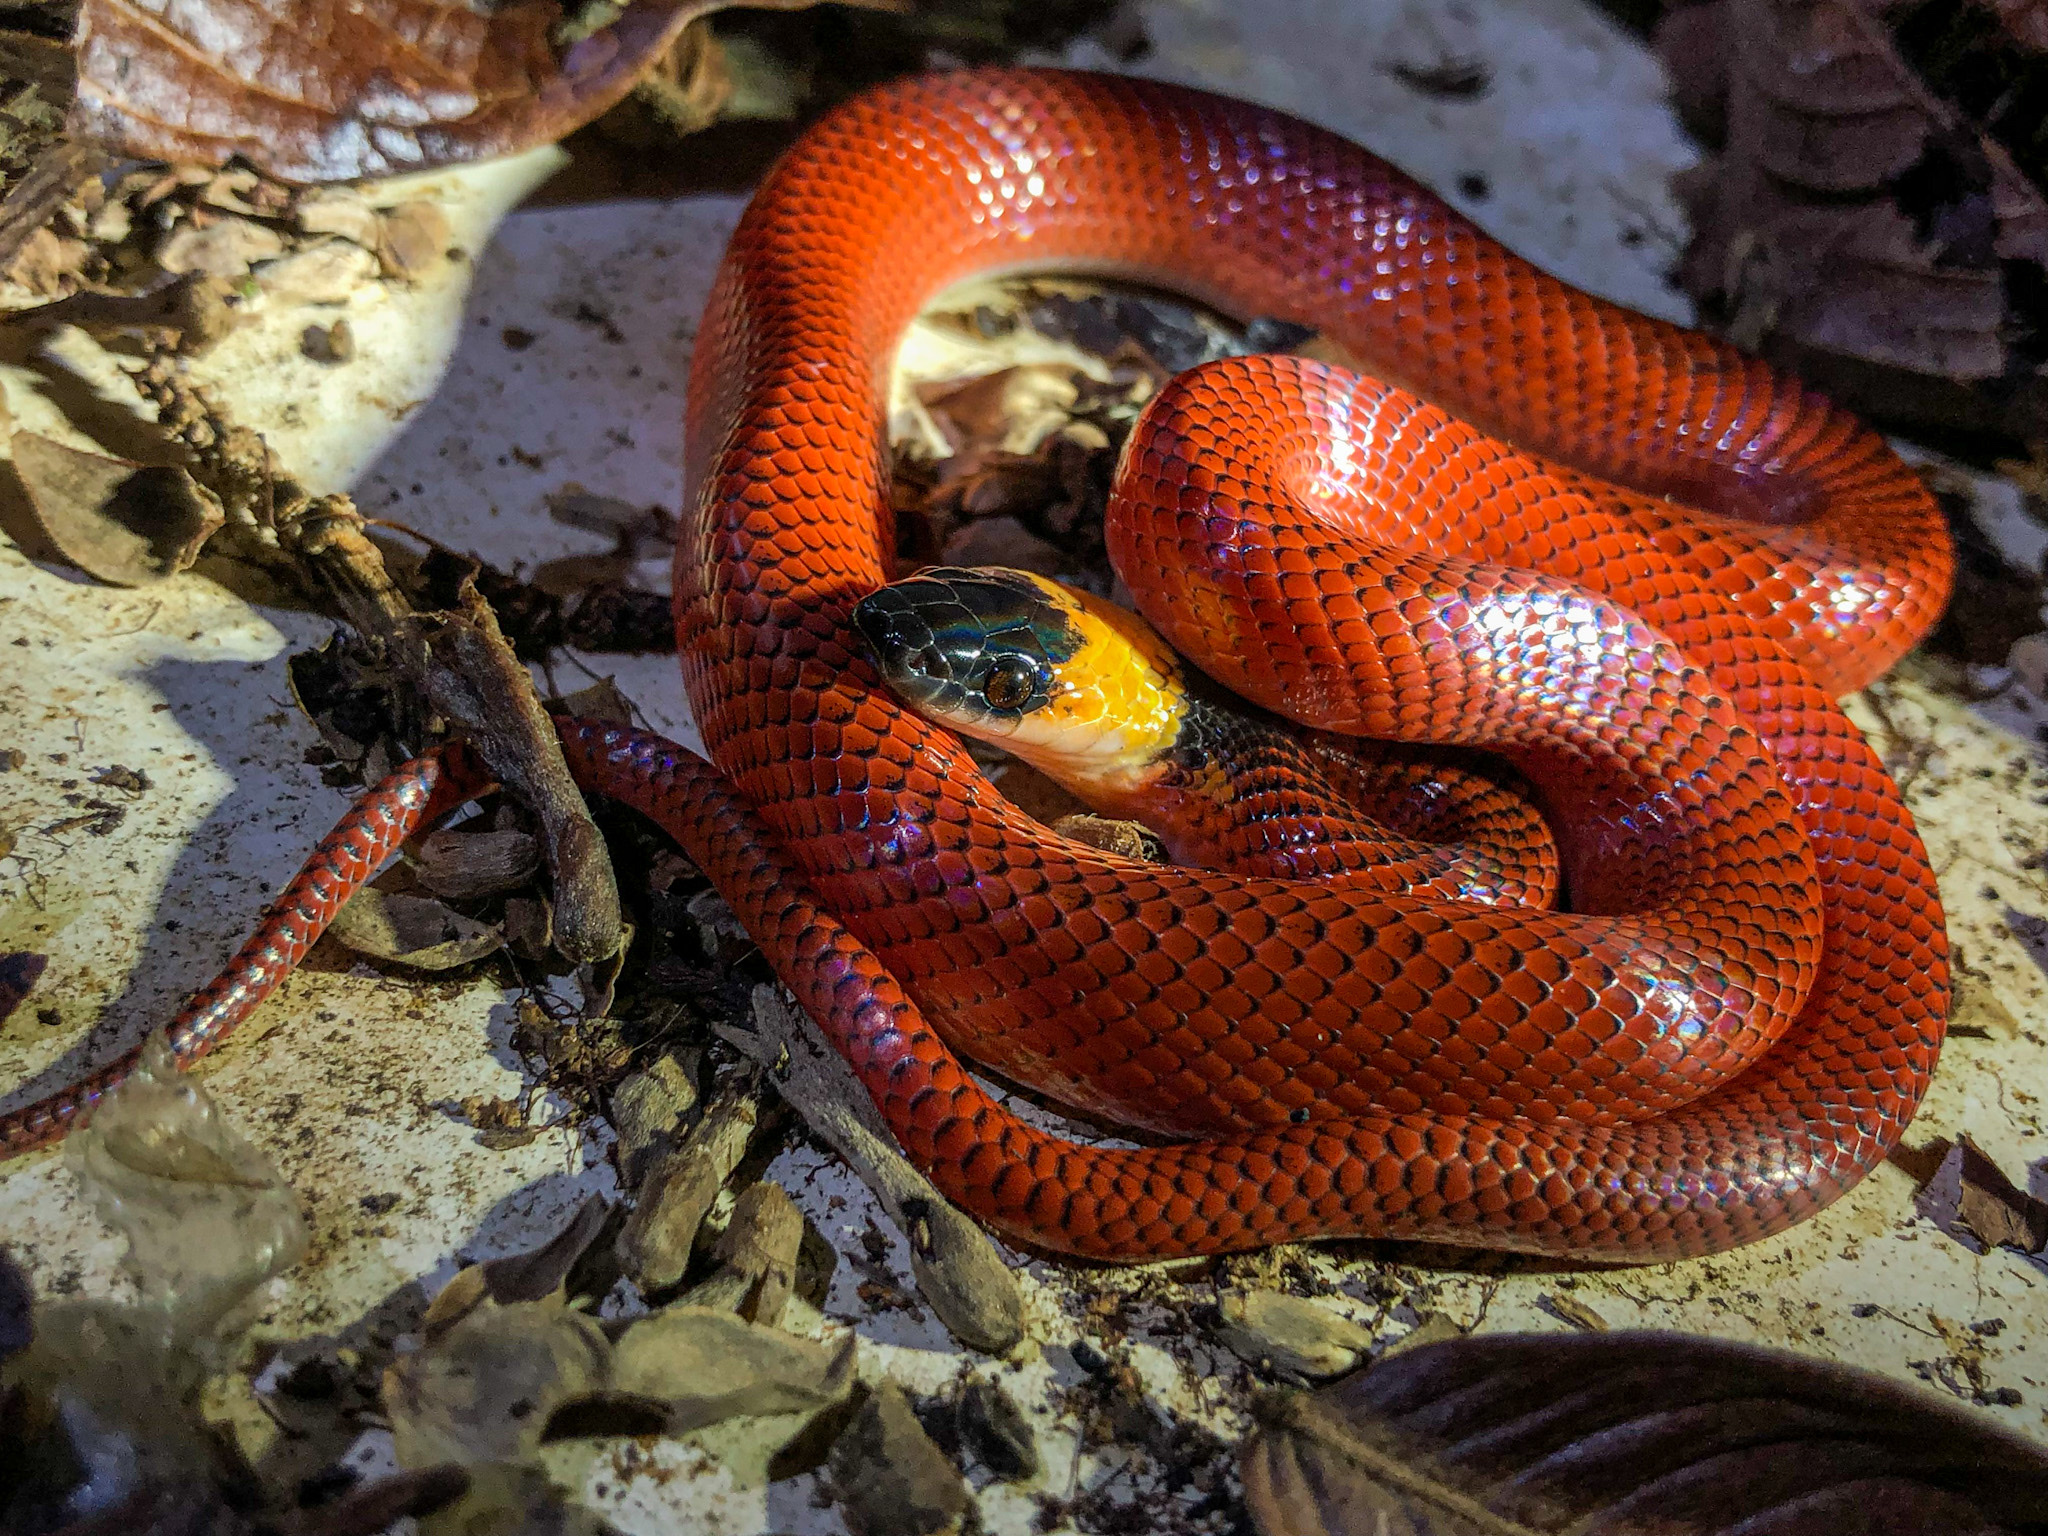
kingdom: Animalia
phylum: Chordata
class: Squamata
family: Colubridae
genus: Clelia
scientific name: Clelia clelia
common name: Mussurana
